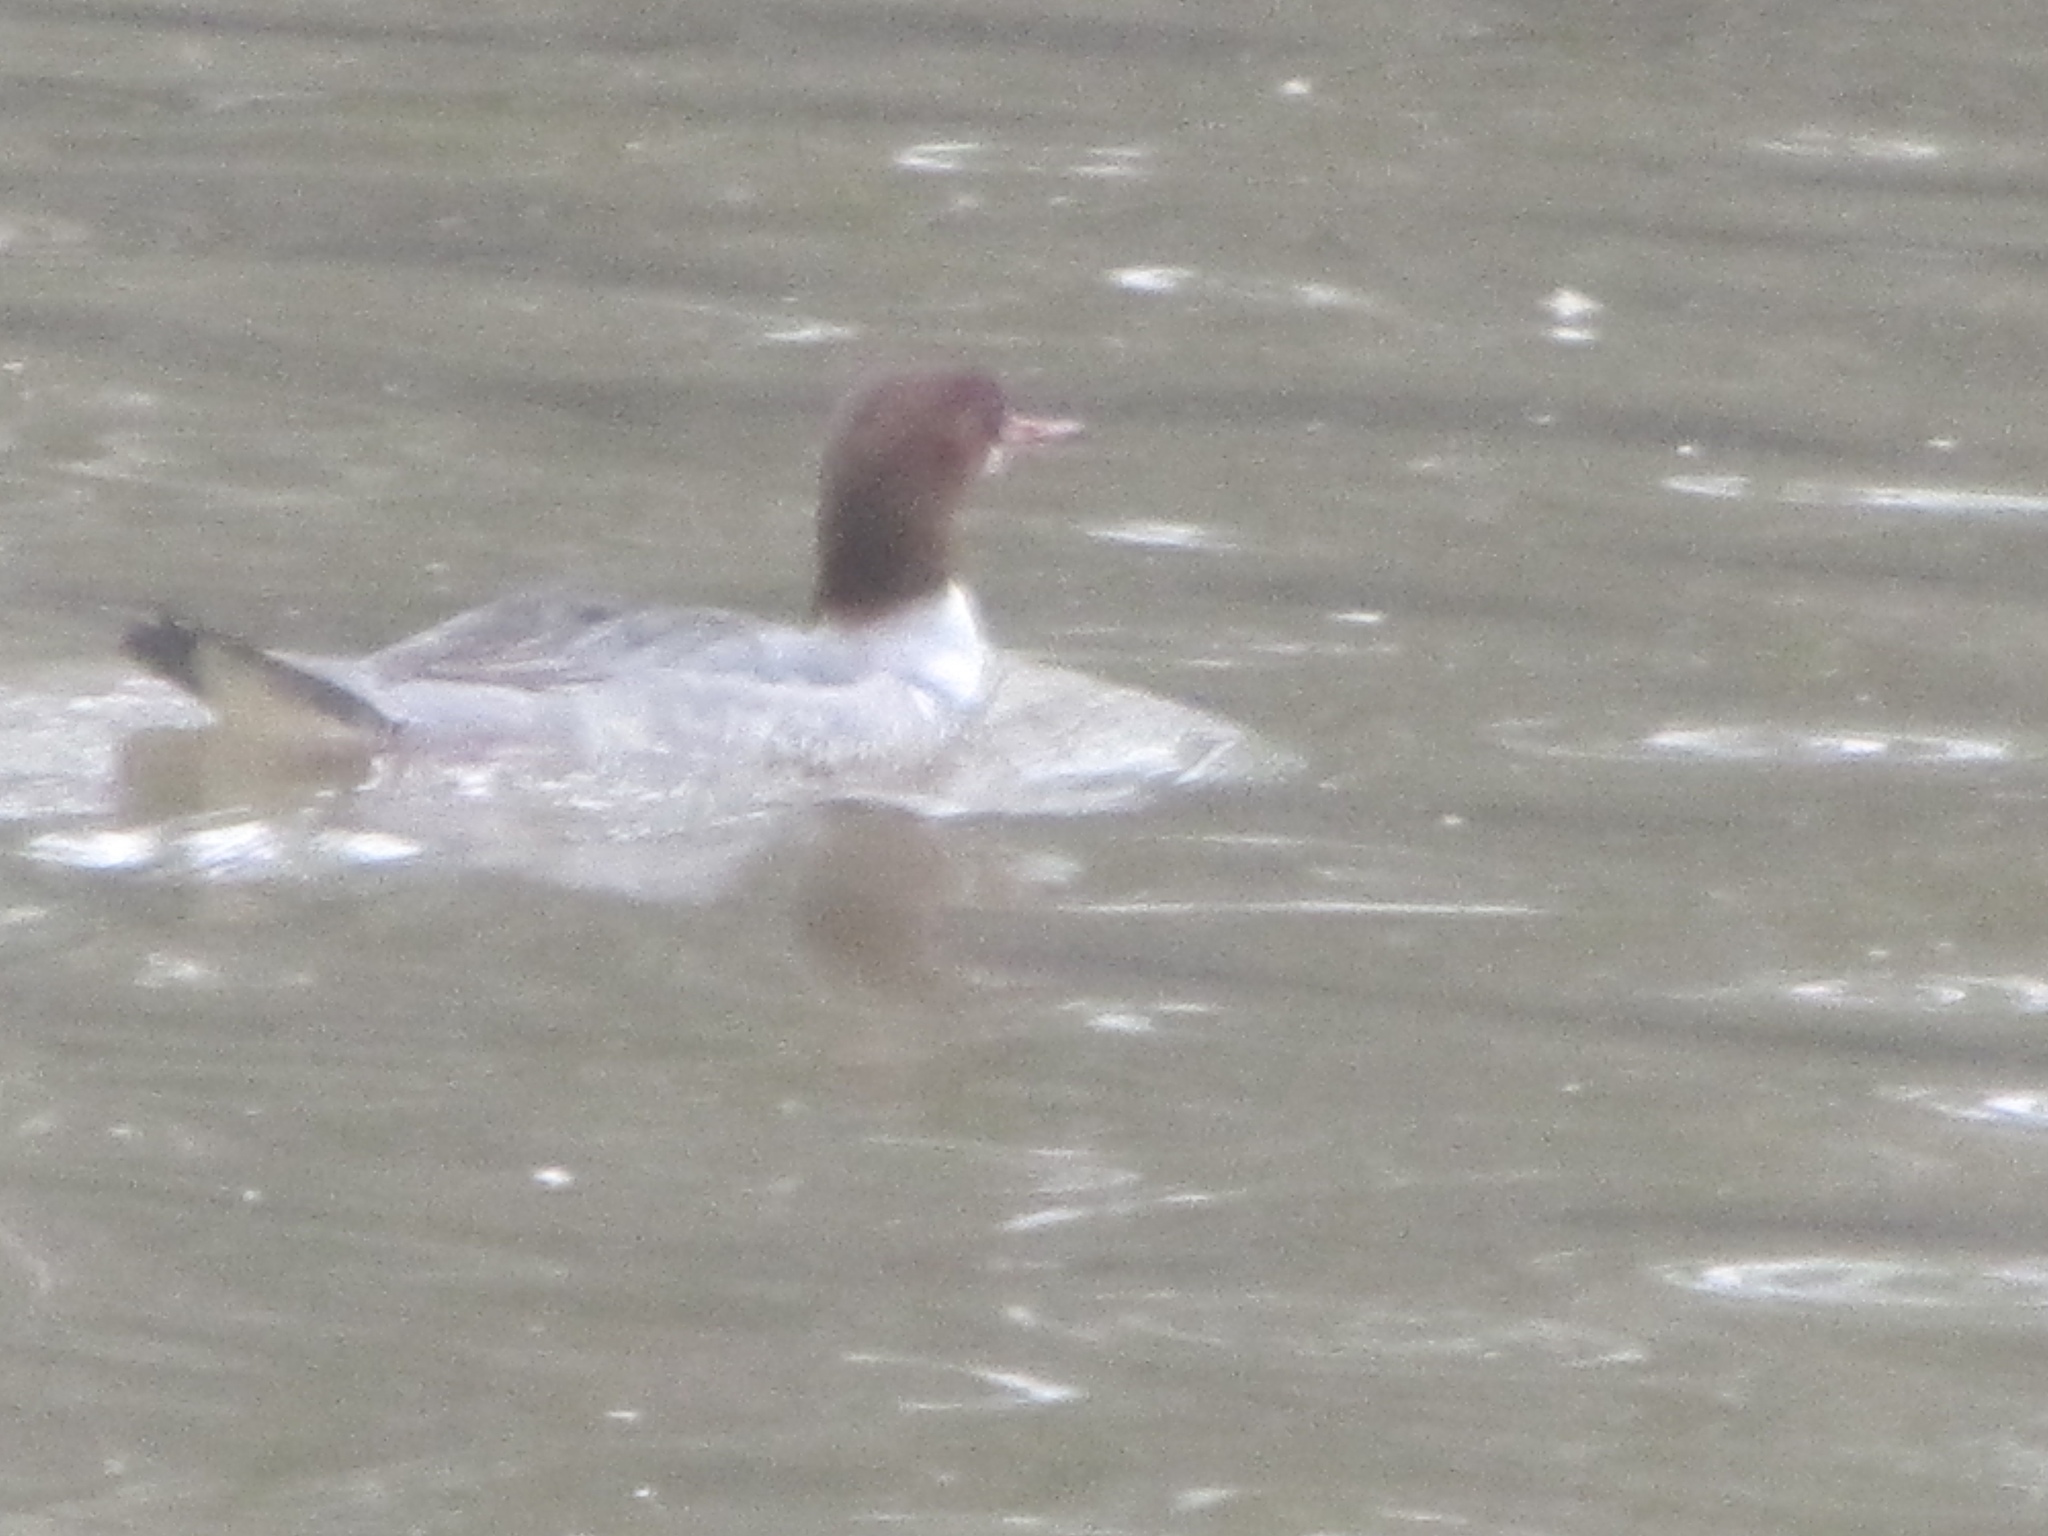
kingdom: Animalia
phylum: Chordata
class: Aves
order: Anseriformes
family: Anatidae
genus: Mergus
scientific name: Mergus merganser
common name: Common merganser
